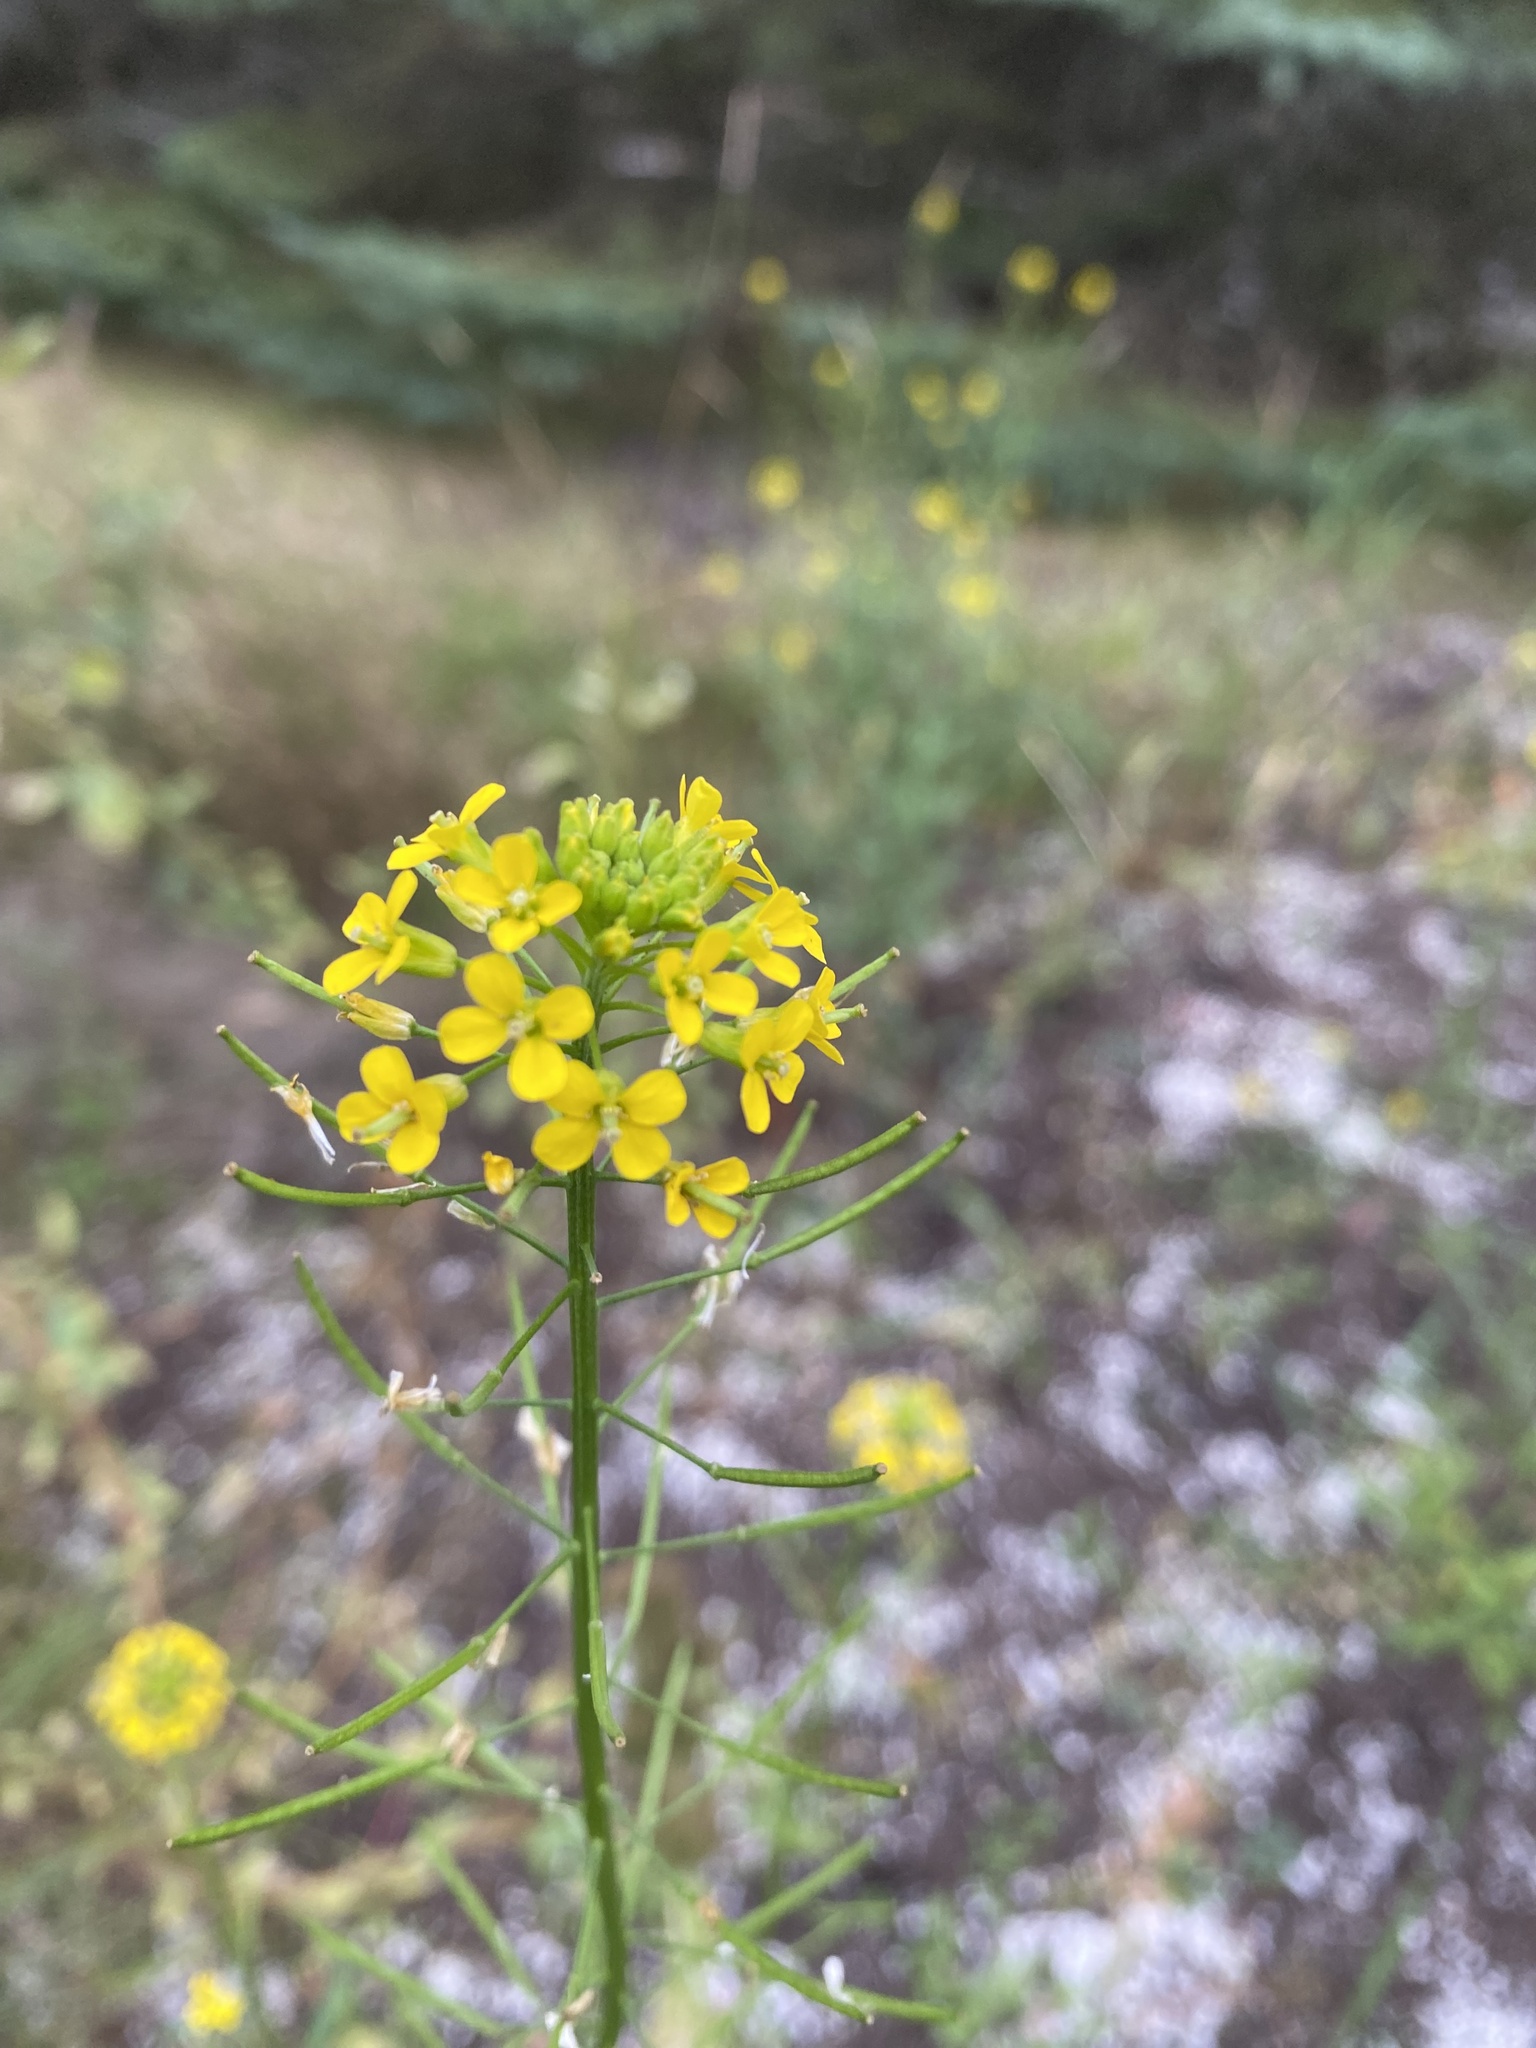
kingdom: Plantae
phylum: Tracheophyta
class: Magnoliopsida
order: Brassicales
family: Brassicaceae
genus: Erysimum
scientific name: Erysimum cheiranthoides
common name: Treacle mustard
